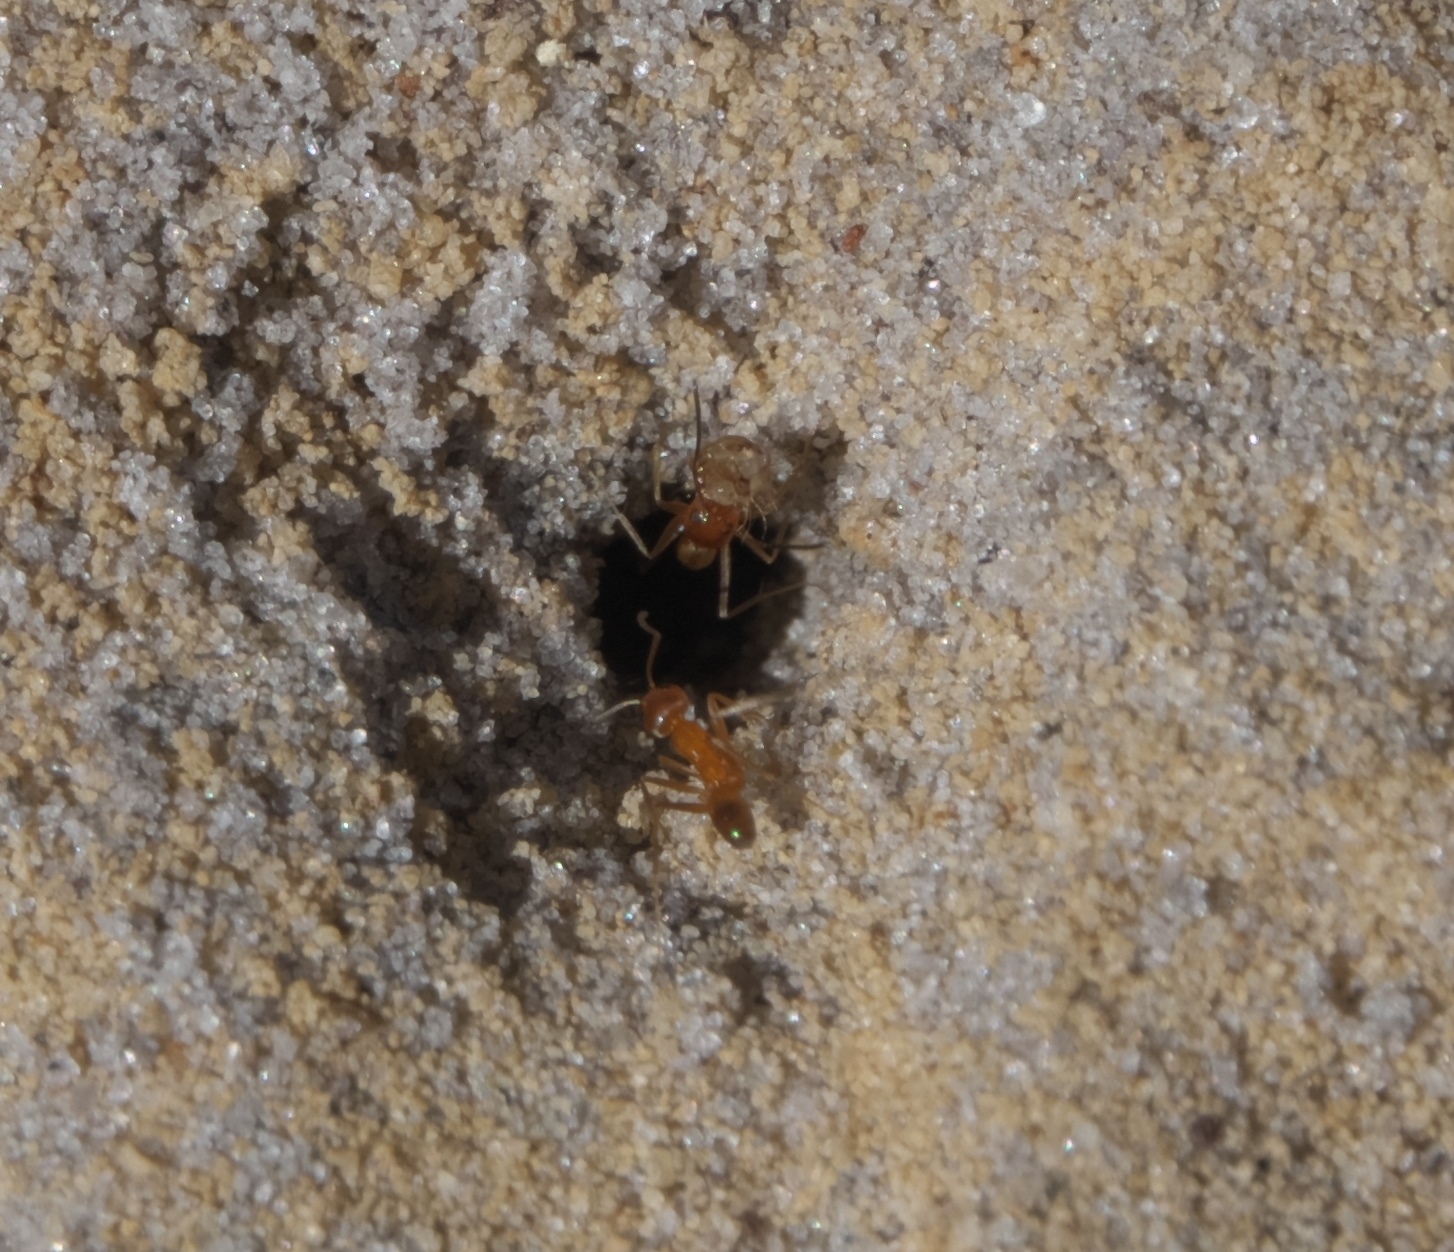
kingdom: Animalia
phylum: Arthropoda
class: Insecta
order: Hymenoptera
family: Formicidae
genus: Dorymyrmex
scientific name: Dorymyrmex bureni
